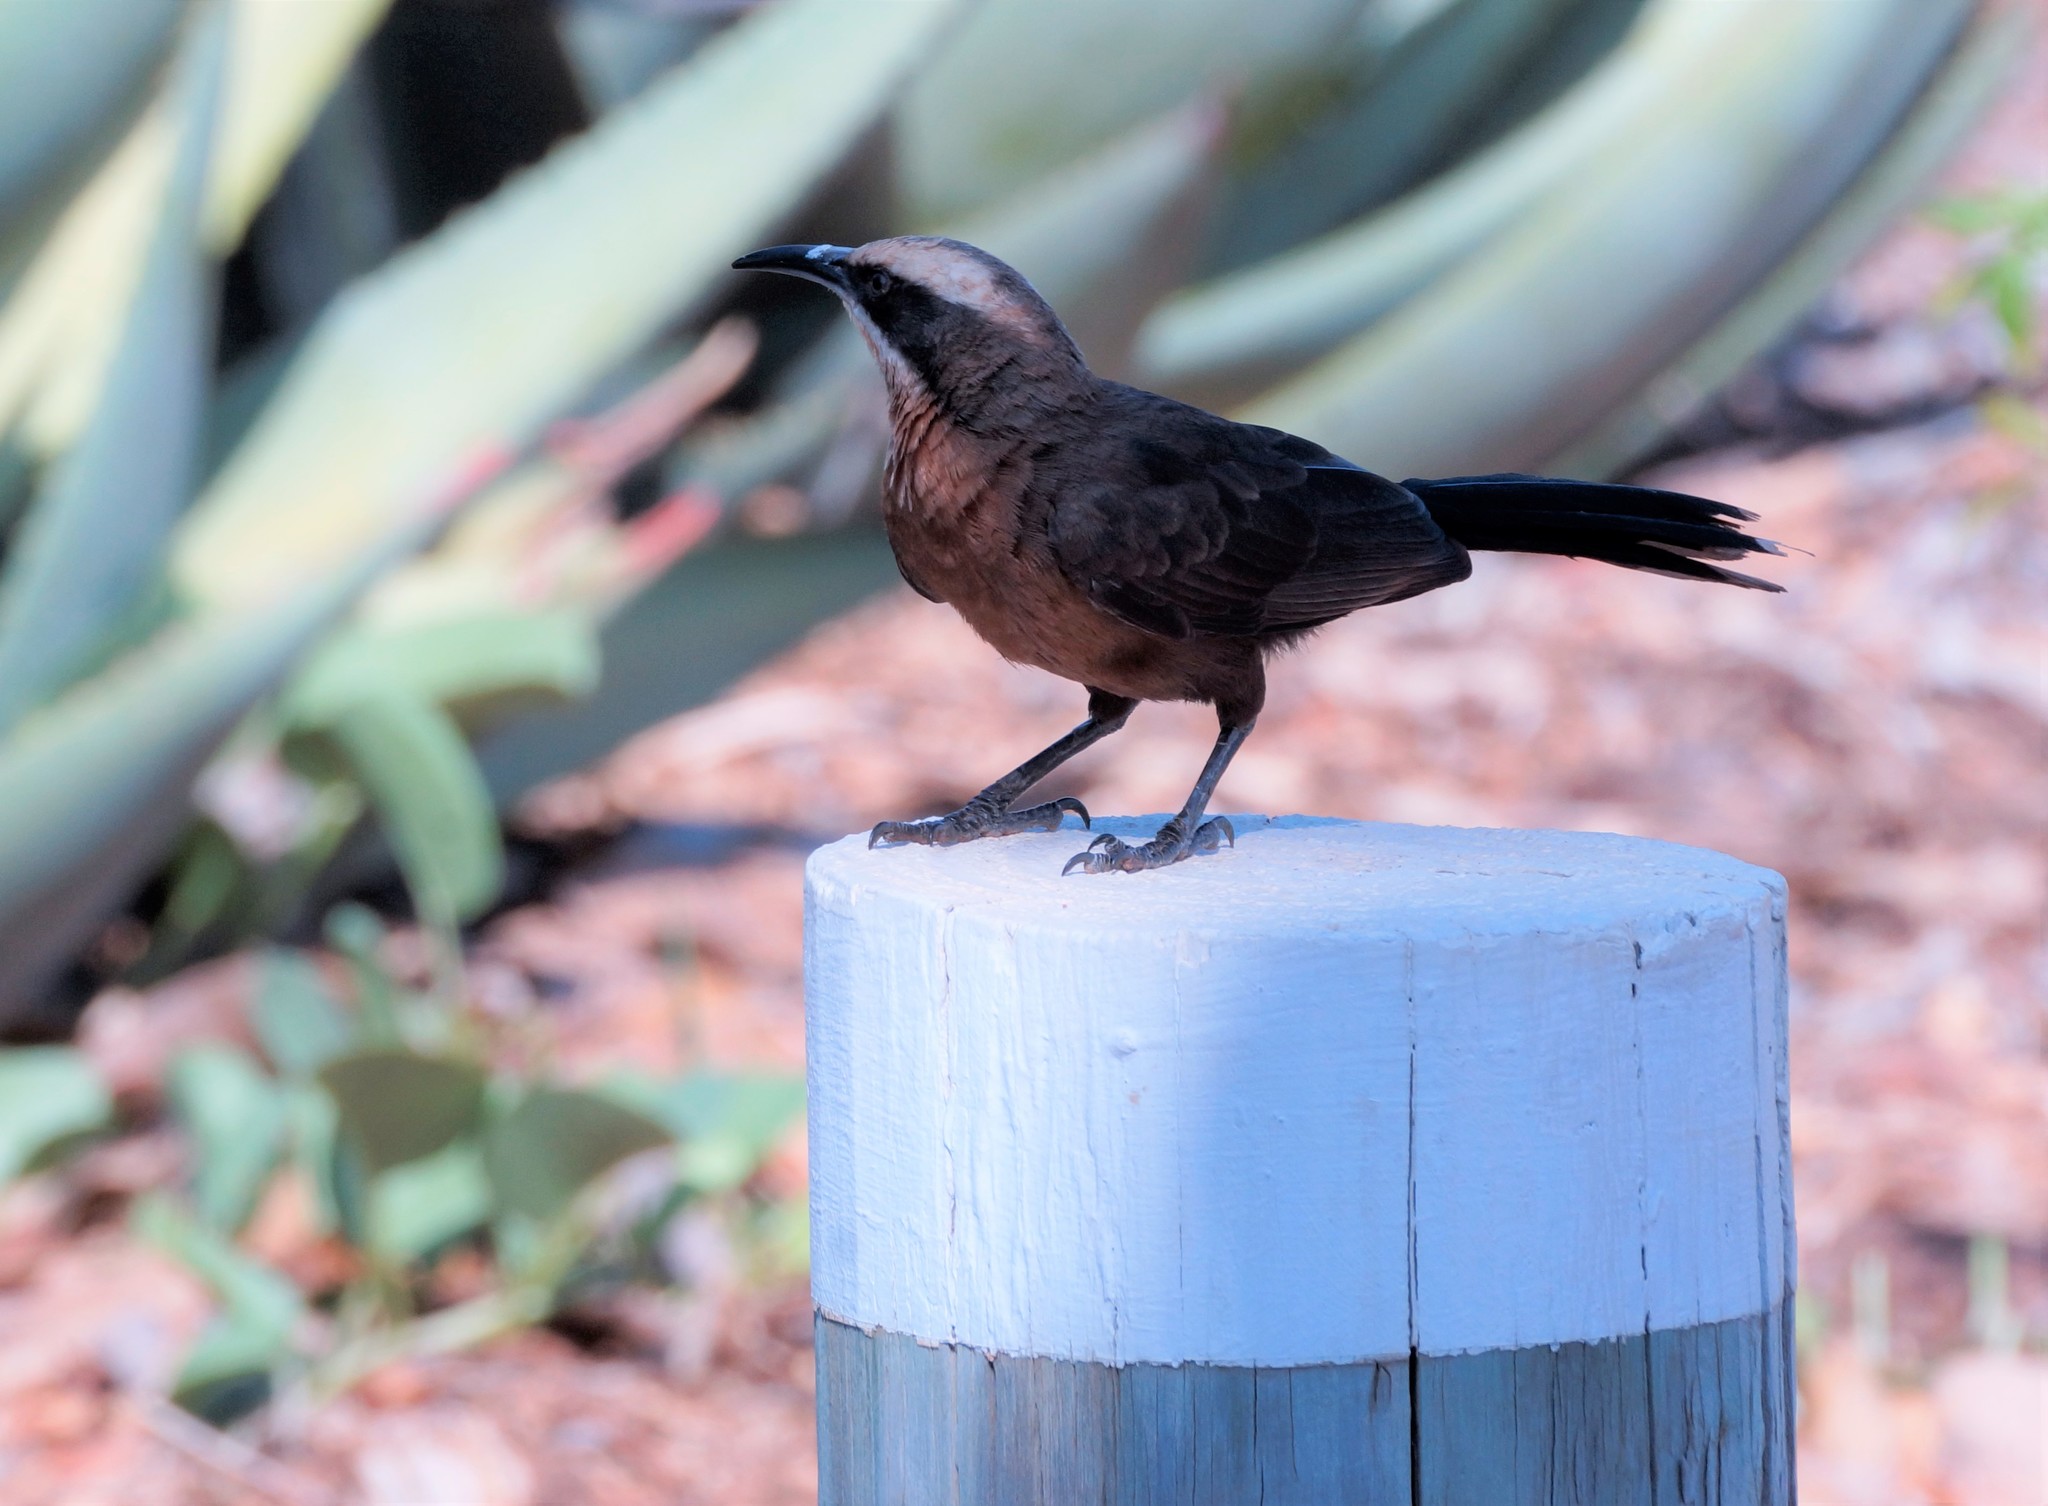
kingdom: Animalia
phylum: Chordata
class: Aves
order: Passeriformes
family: Pomatostomidae
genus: Pomatostomus
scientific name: Pomatostomus temporalis
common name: Grey-crowned babbler
